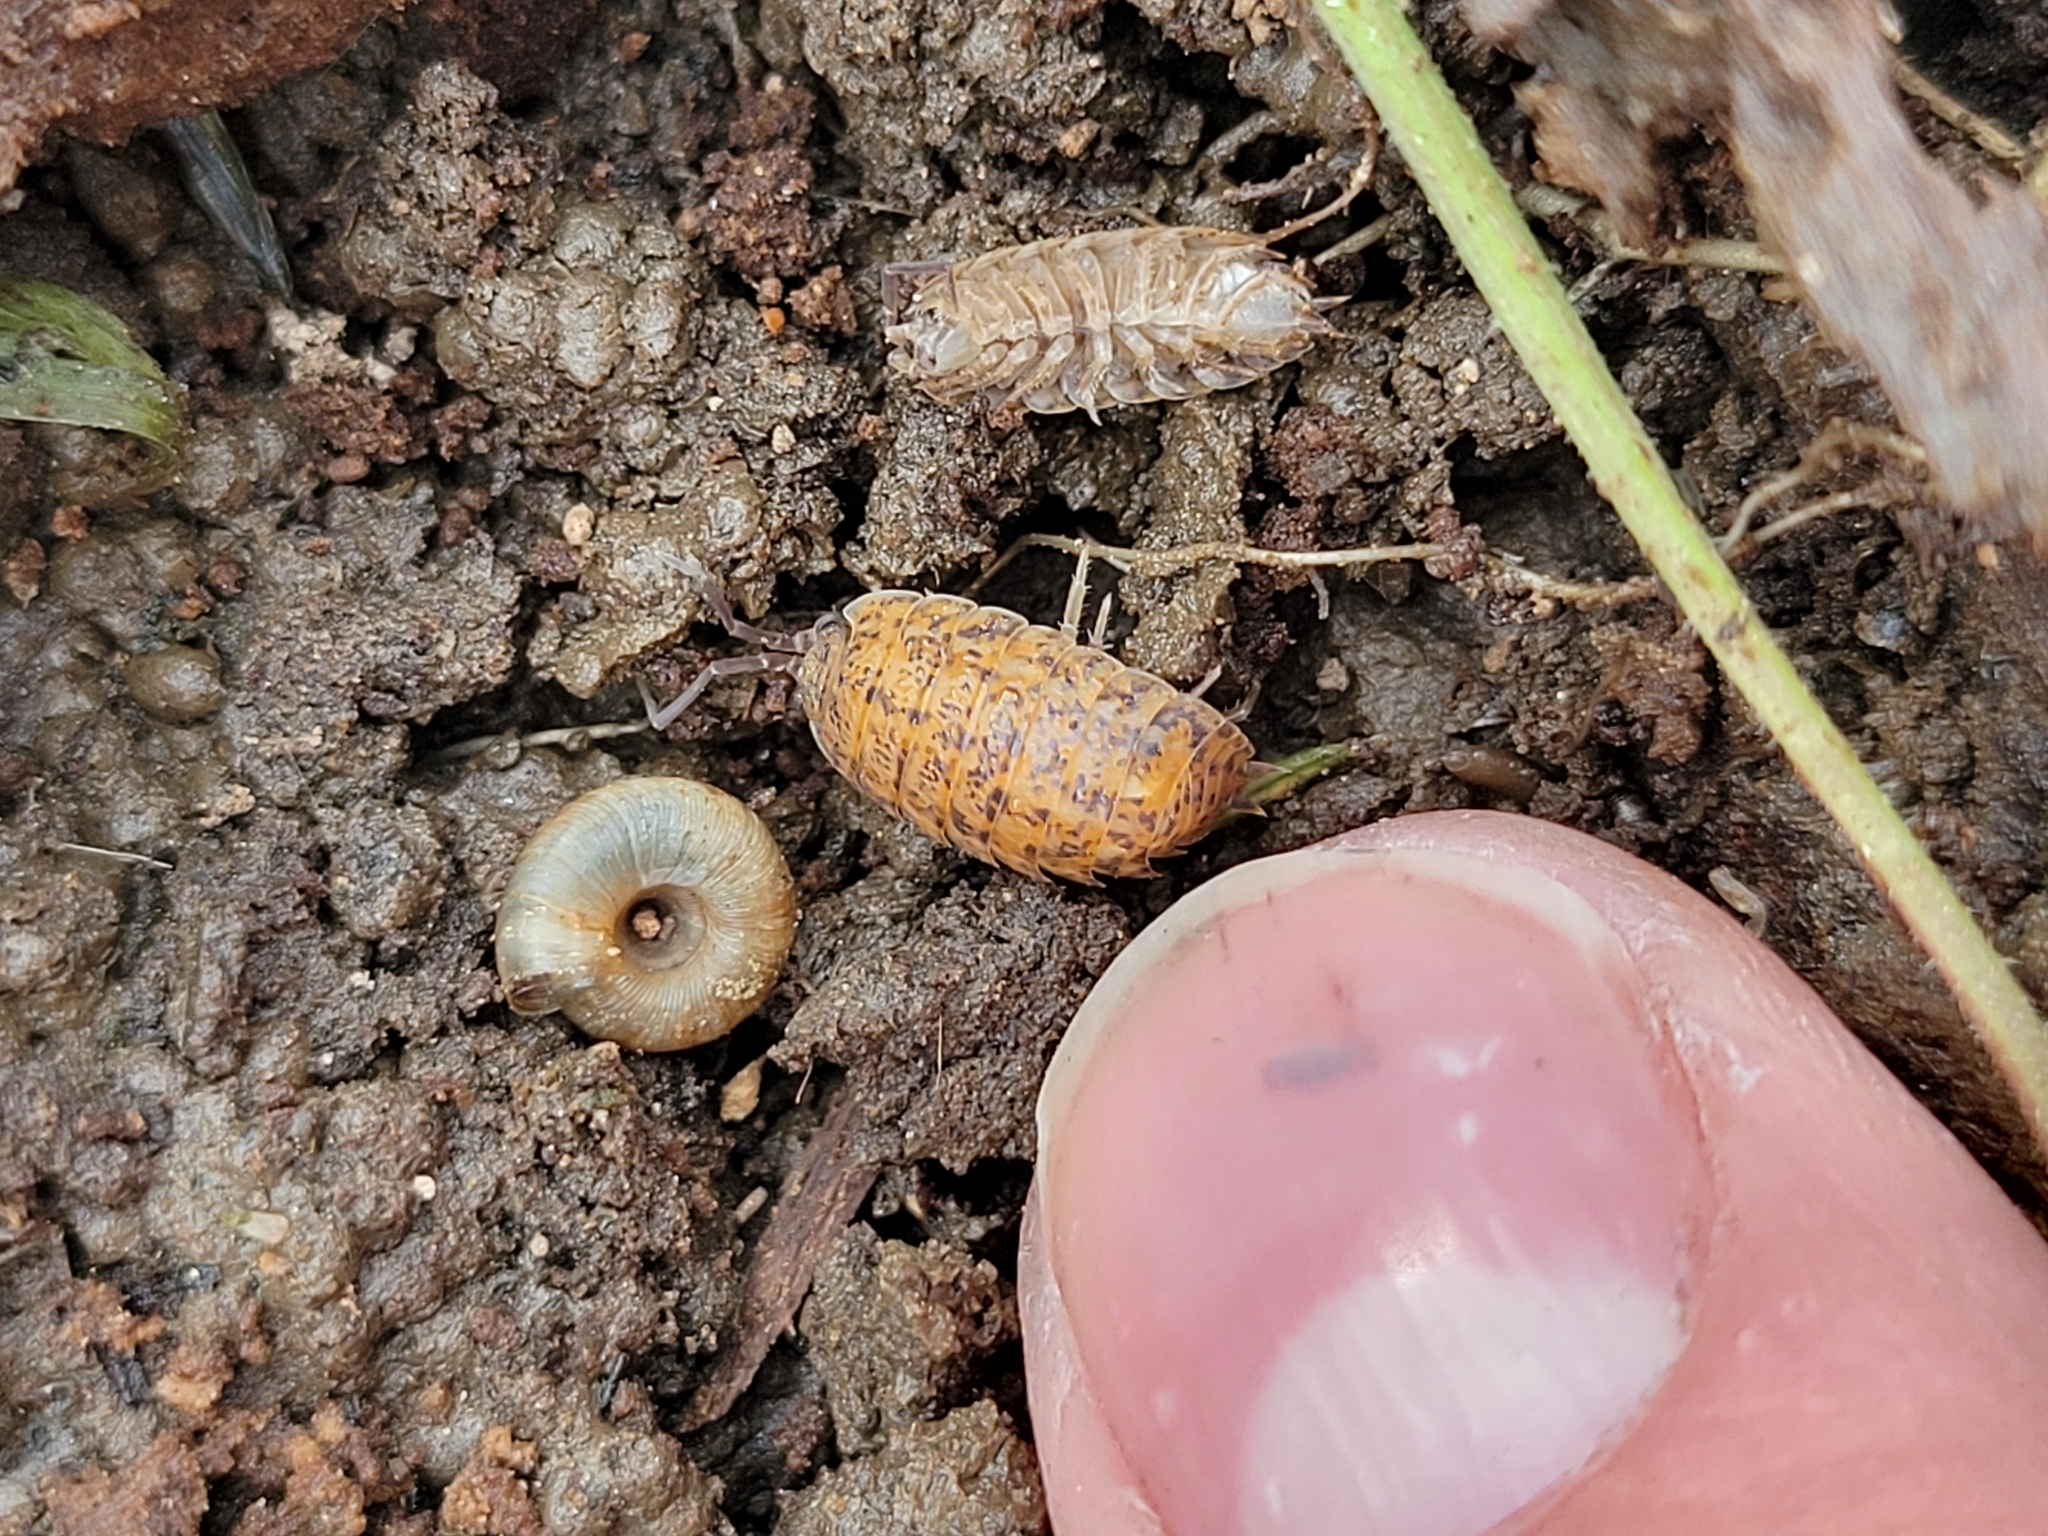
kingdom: Animalia
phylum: Arthropoda
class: Malacostraca
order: Isopoda
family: Trachelipodidae
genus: Trachelipus
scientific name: Trachelipus rathkii
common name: Isopod
